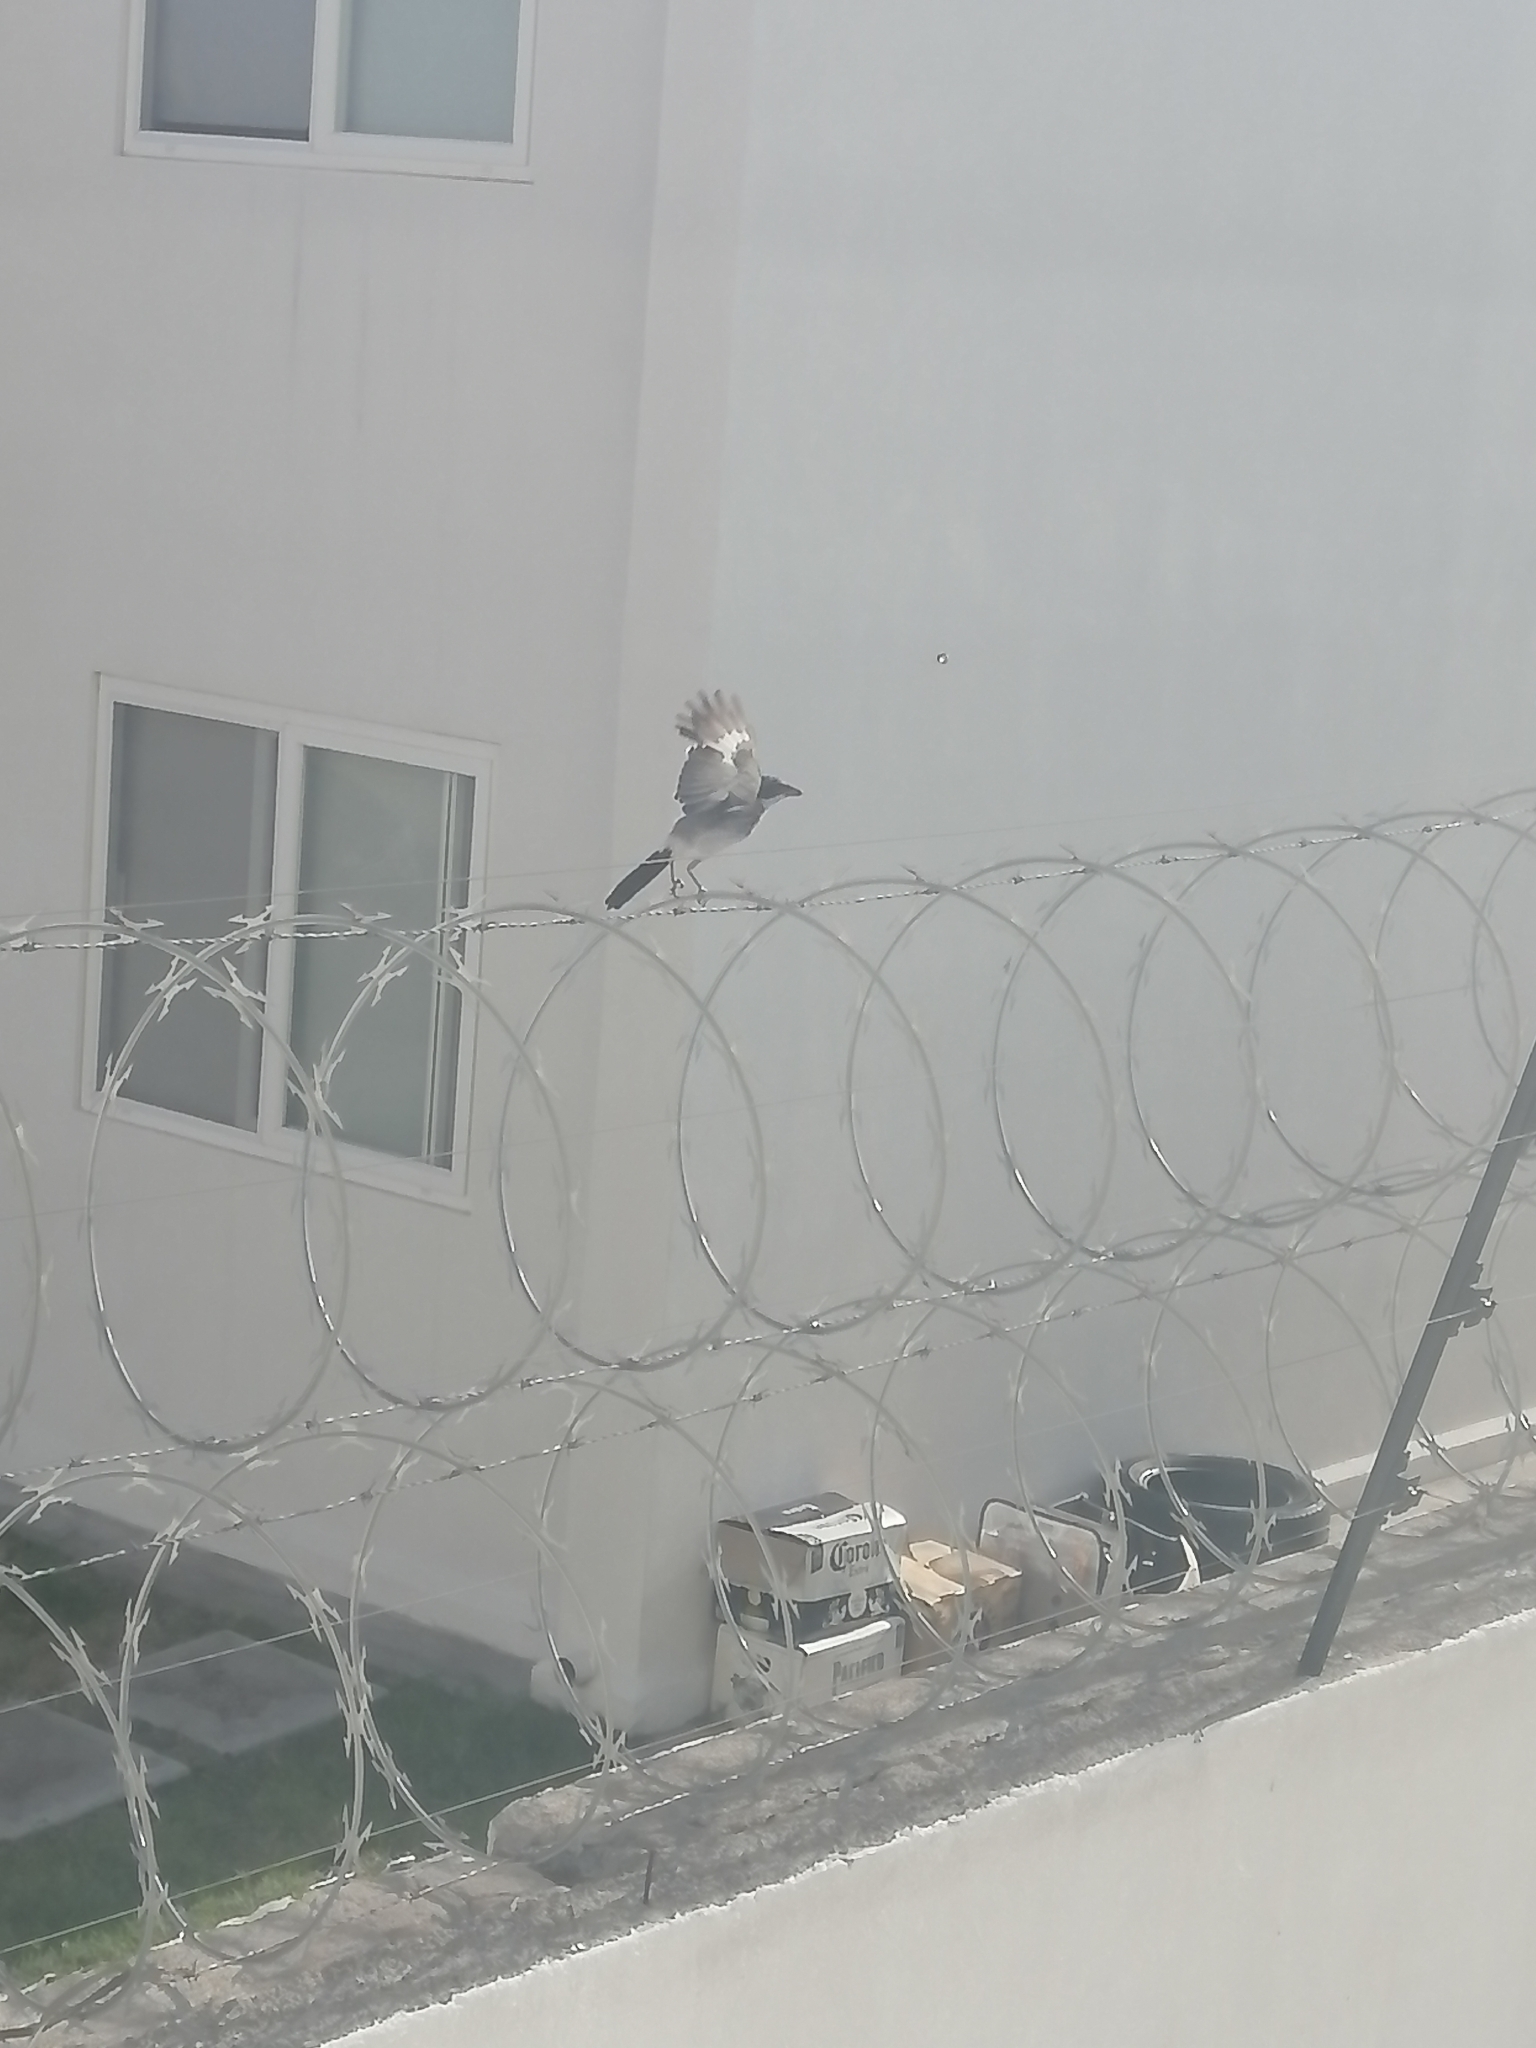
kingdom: Animalia
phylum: Chordata
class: Aves
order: Passeriformes
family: Laniidae
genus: Lanius
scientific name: Lanius ludovicianus
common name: Loggerhead shrike
